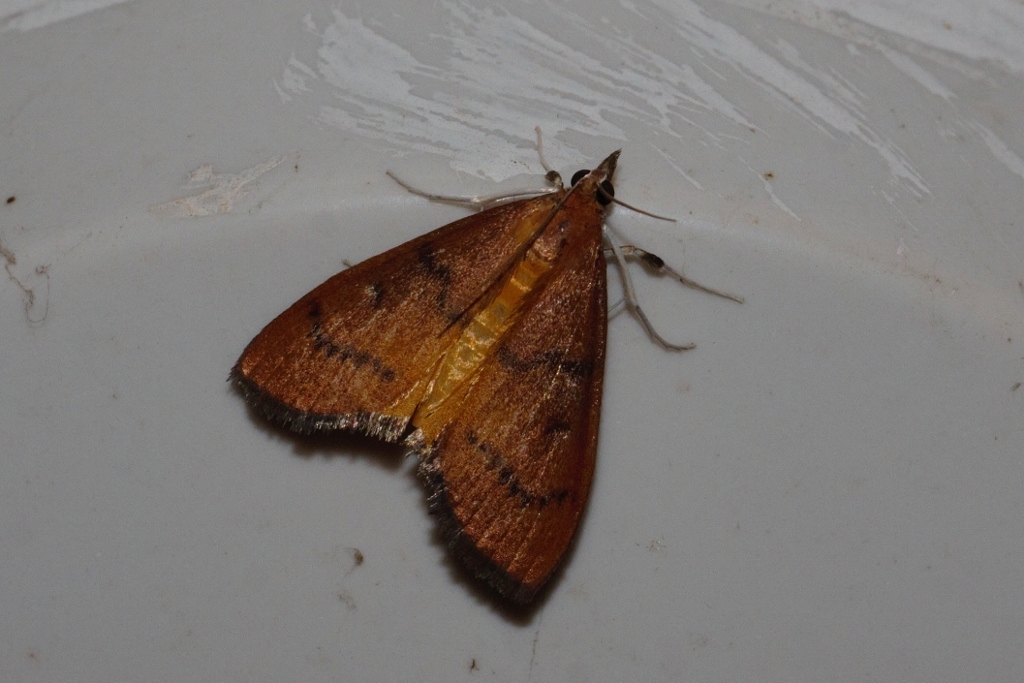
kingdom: Animalia
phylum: Arthropoda
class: Insecta
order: Lepidoptera
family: Crambidae
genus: Uresiphita
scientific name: Uresiphita gilvata
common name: Yellow-underwing pearl
